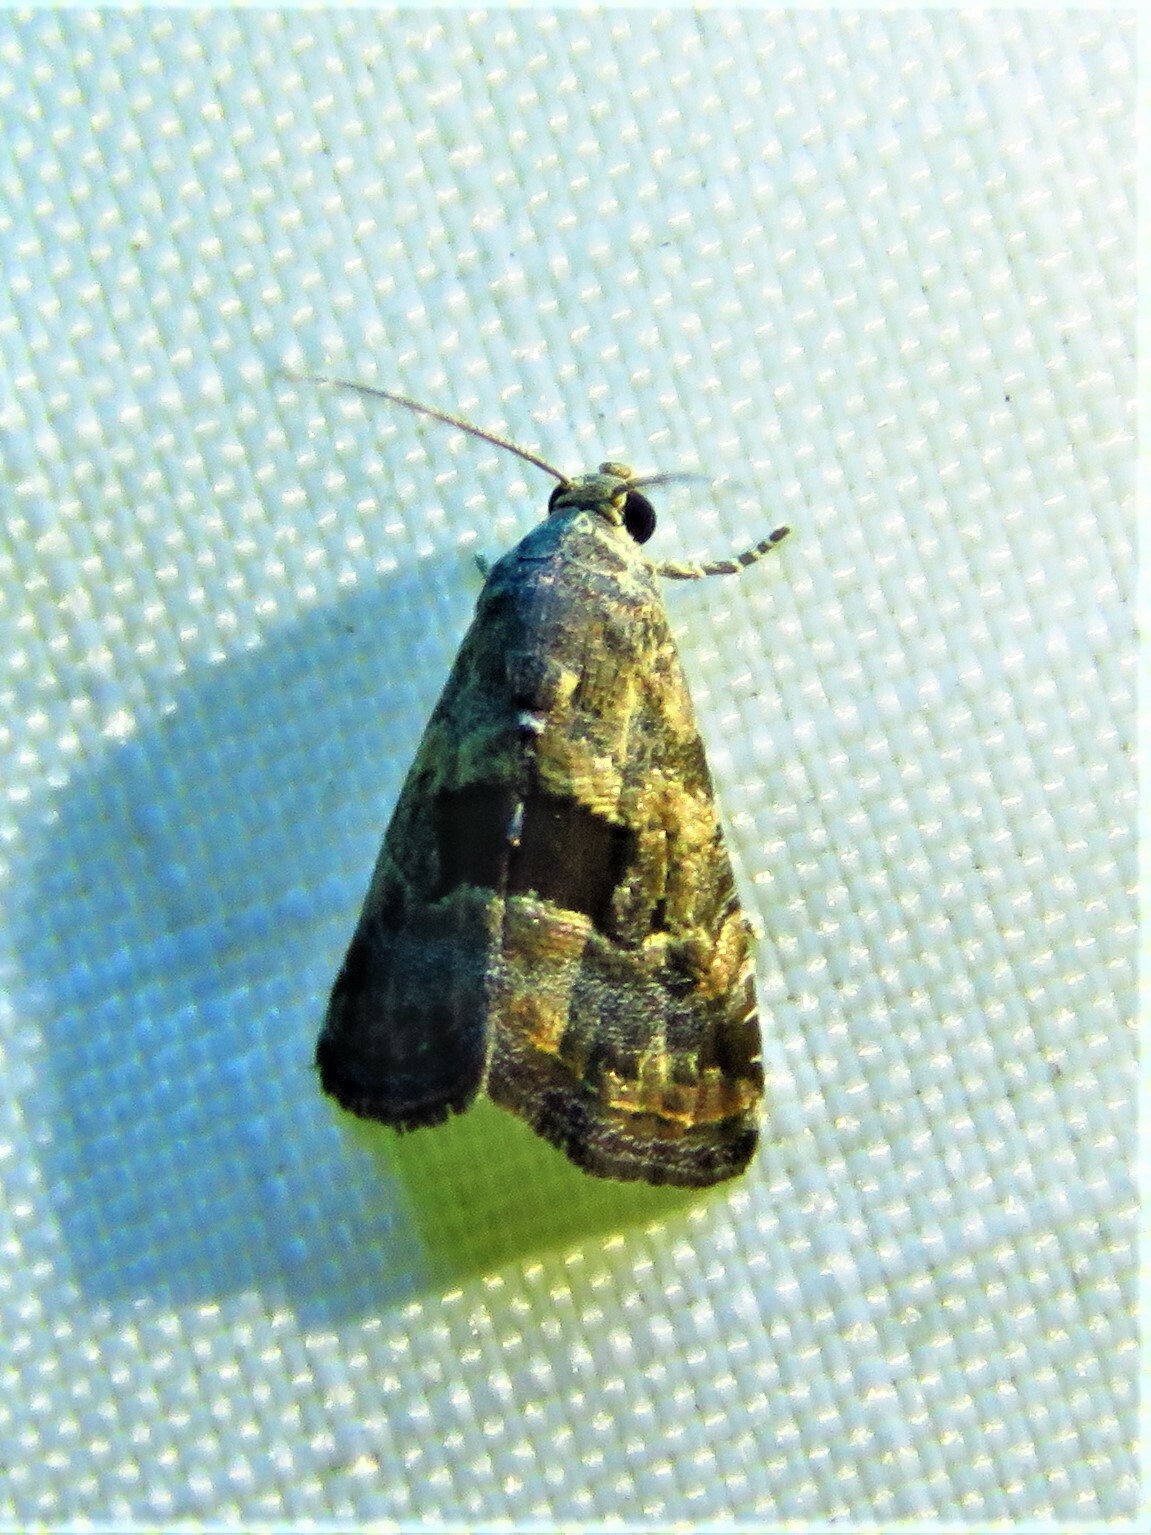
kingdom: Animalia
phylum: Arthropoda
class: Insecta
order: Lepidoptera
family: Noctuidae
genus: Tripudia
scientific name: Tripudia quadrifera
